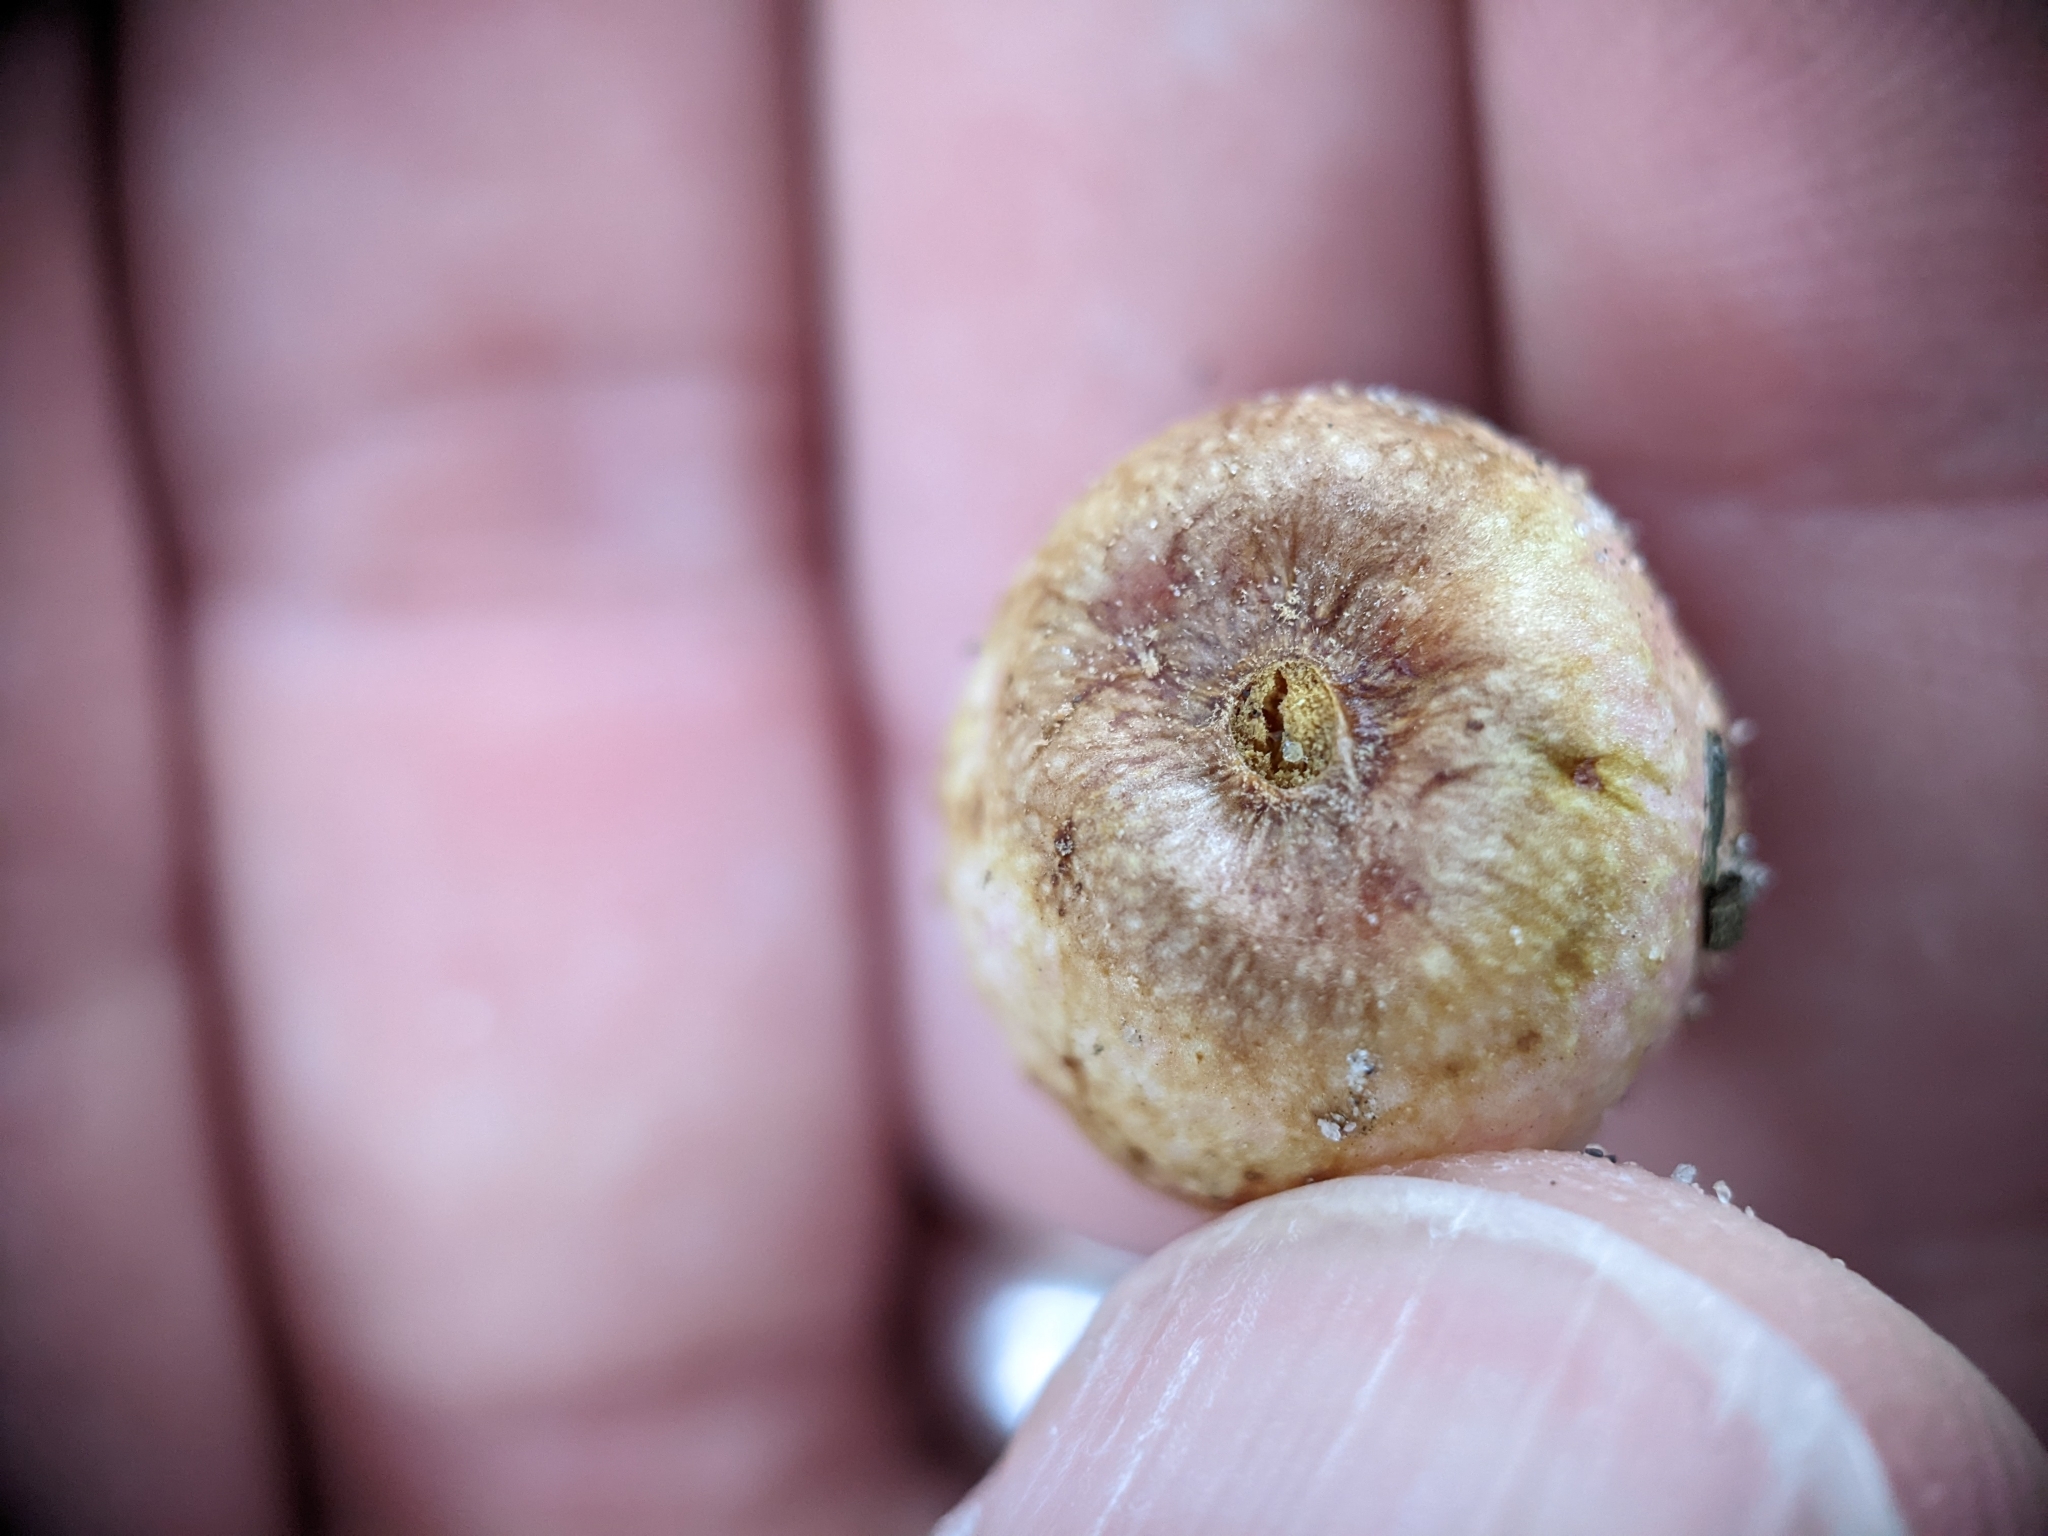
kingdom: Animalia
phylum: Arthropoda
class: Insecta
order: Hymenoptera
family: Cynipidae
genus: Amphibolips
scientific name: Amphibolips
